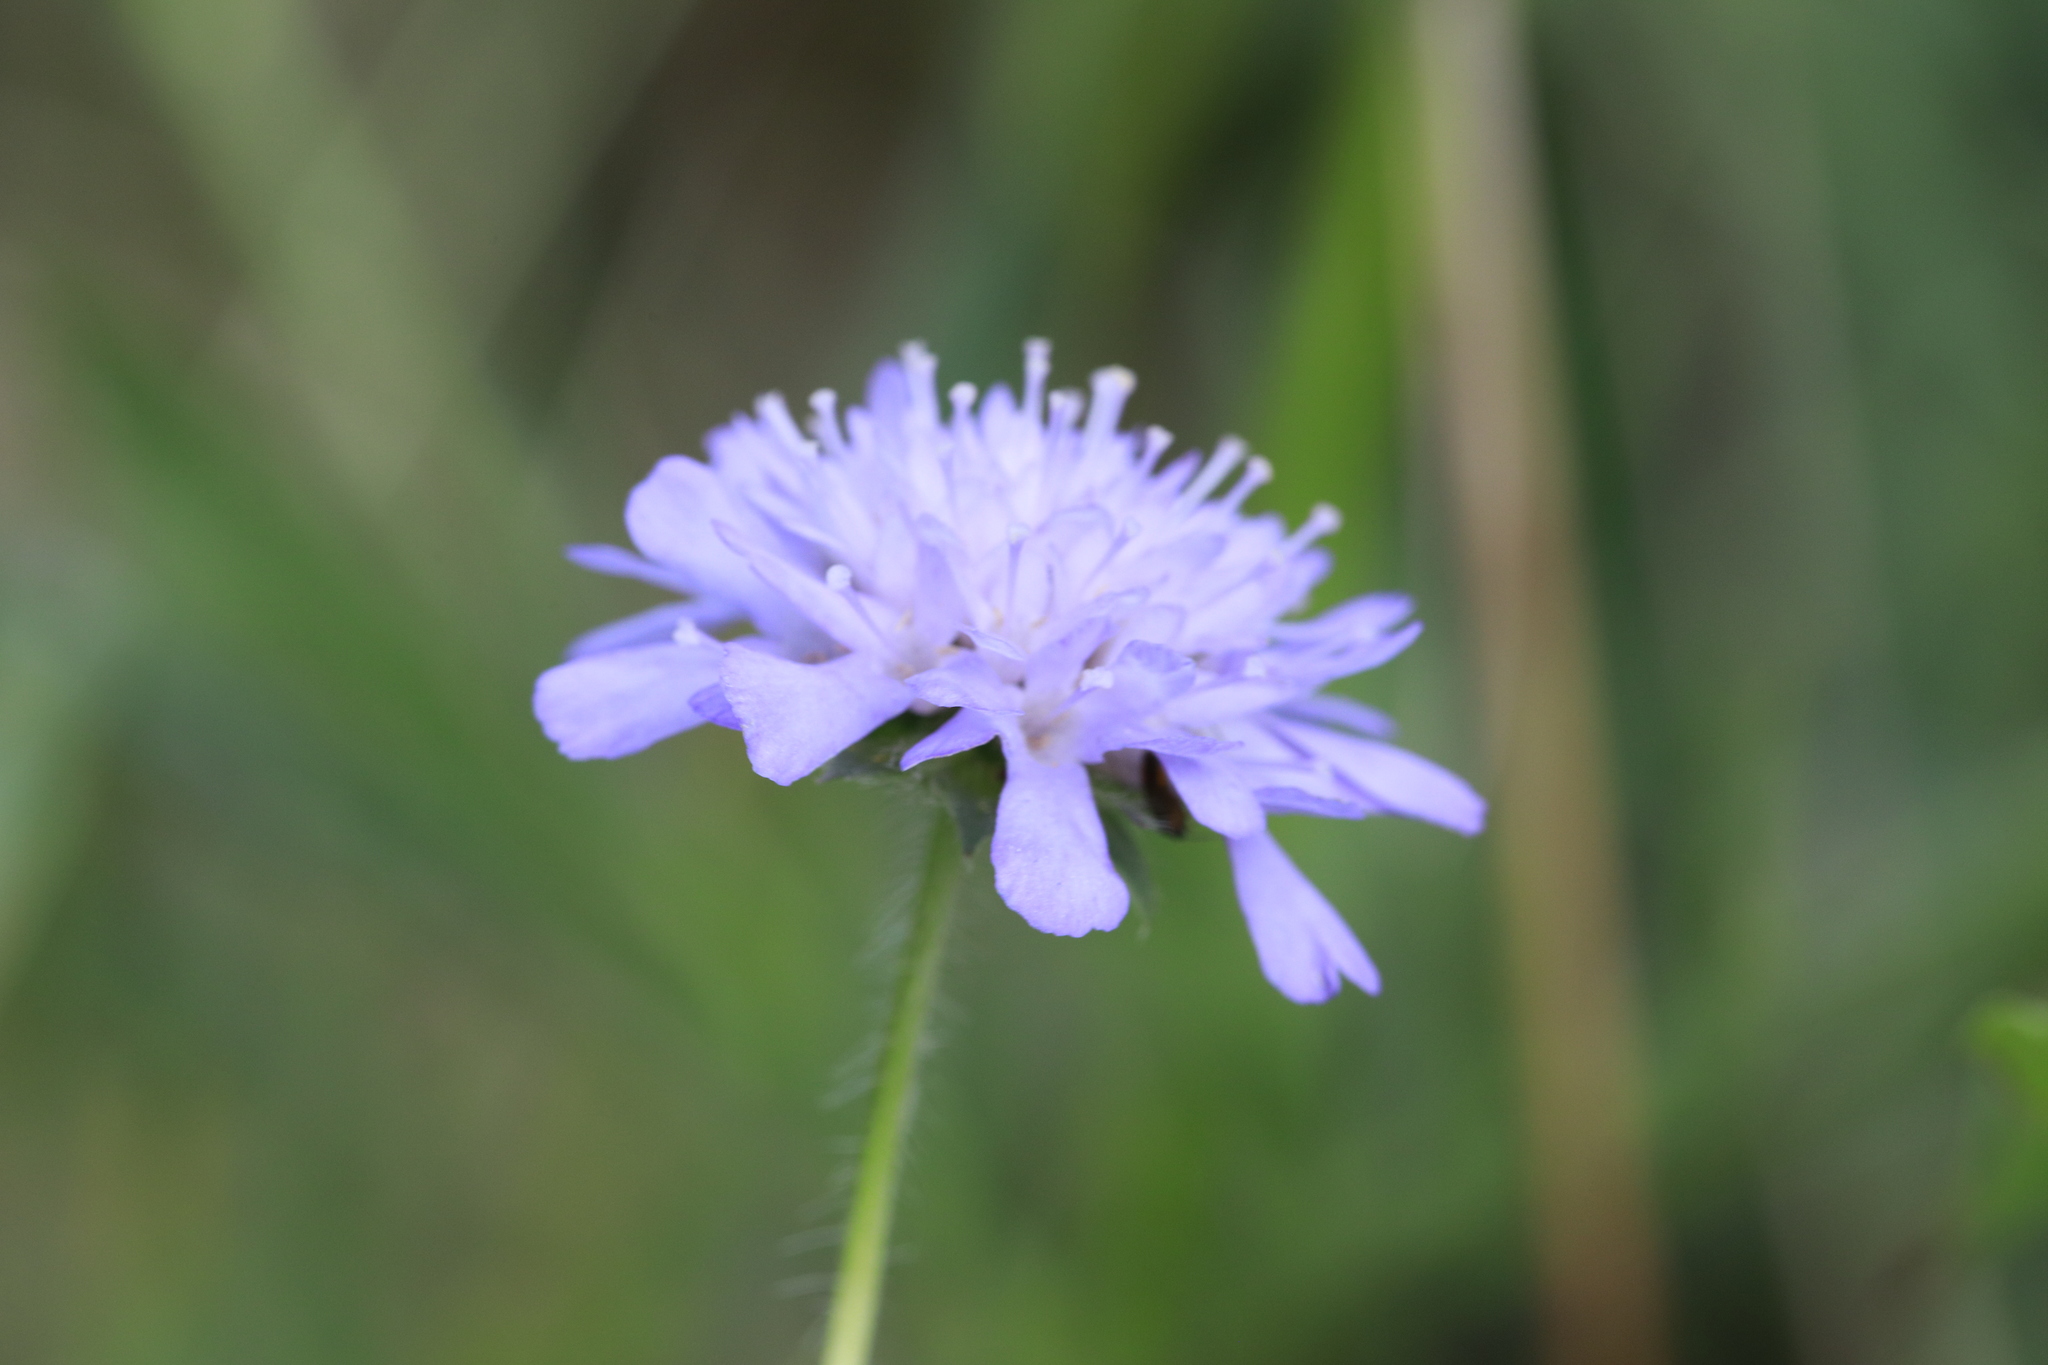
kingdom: Plantae
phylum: Tracheophyta
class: Magnoliopsida
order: Dipsacales
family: Caprifoliaceae
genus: Knautia
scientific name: Knautia arvensis
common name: Field scabiosa
